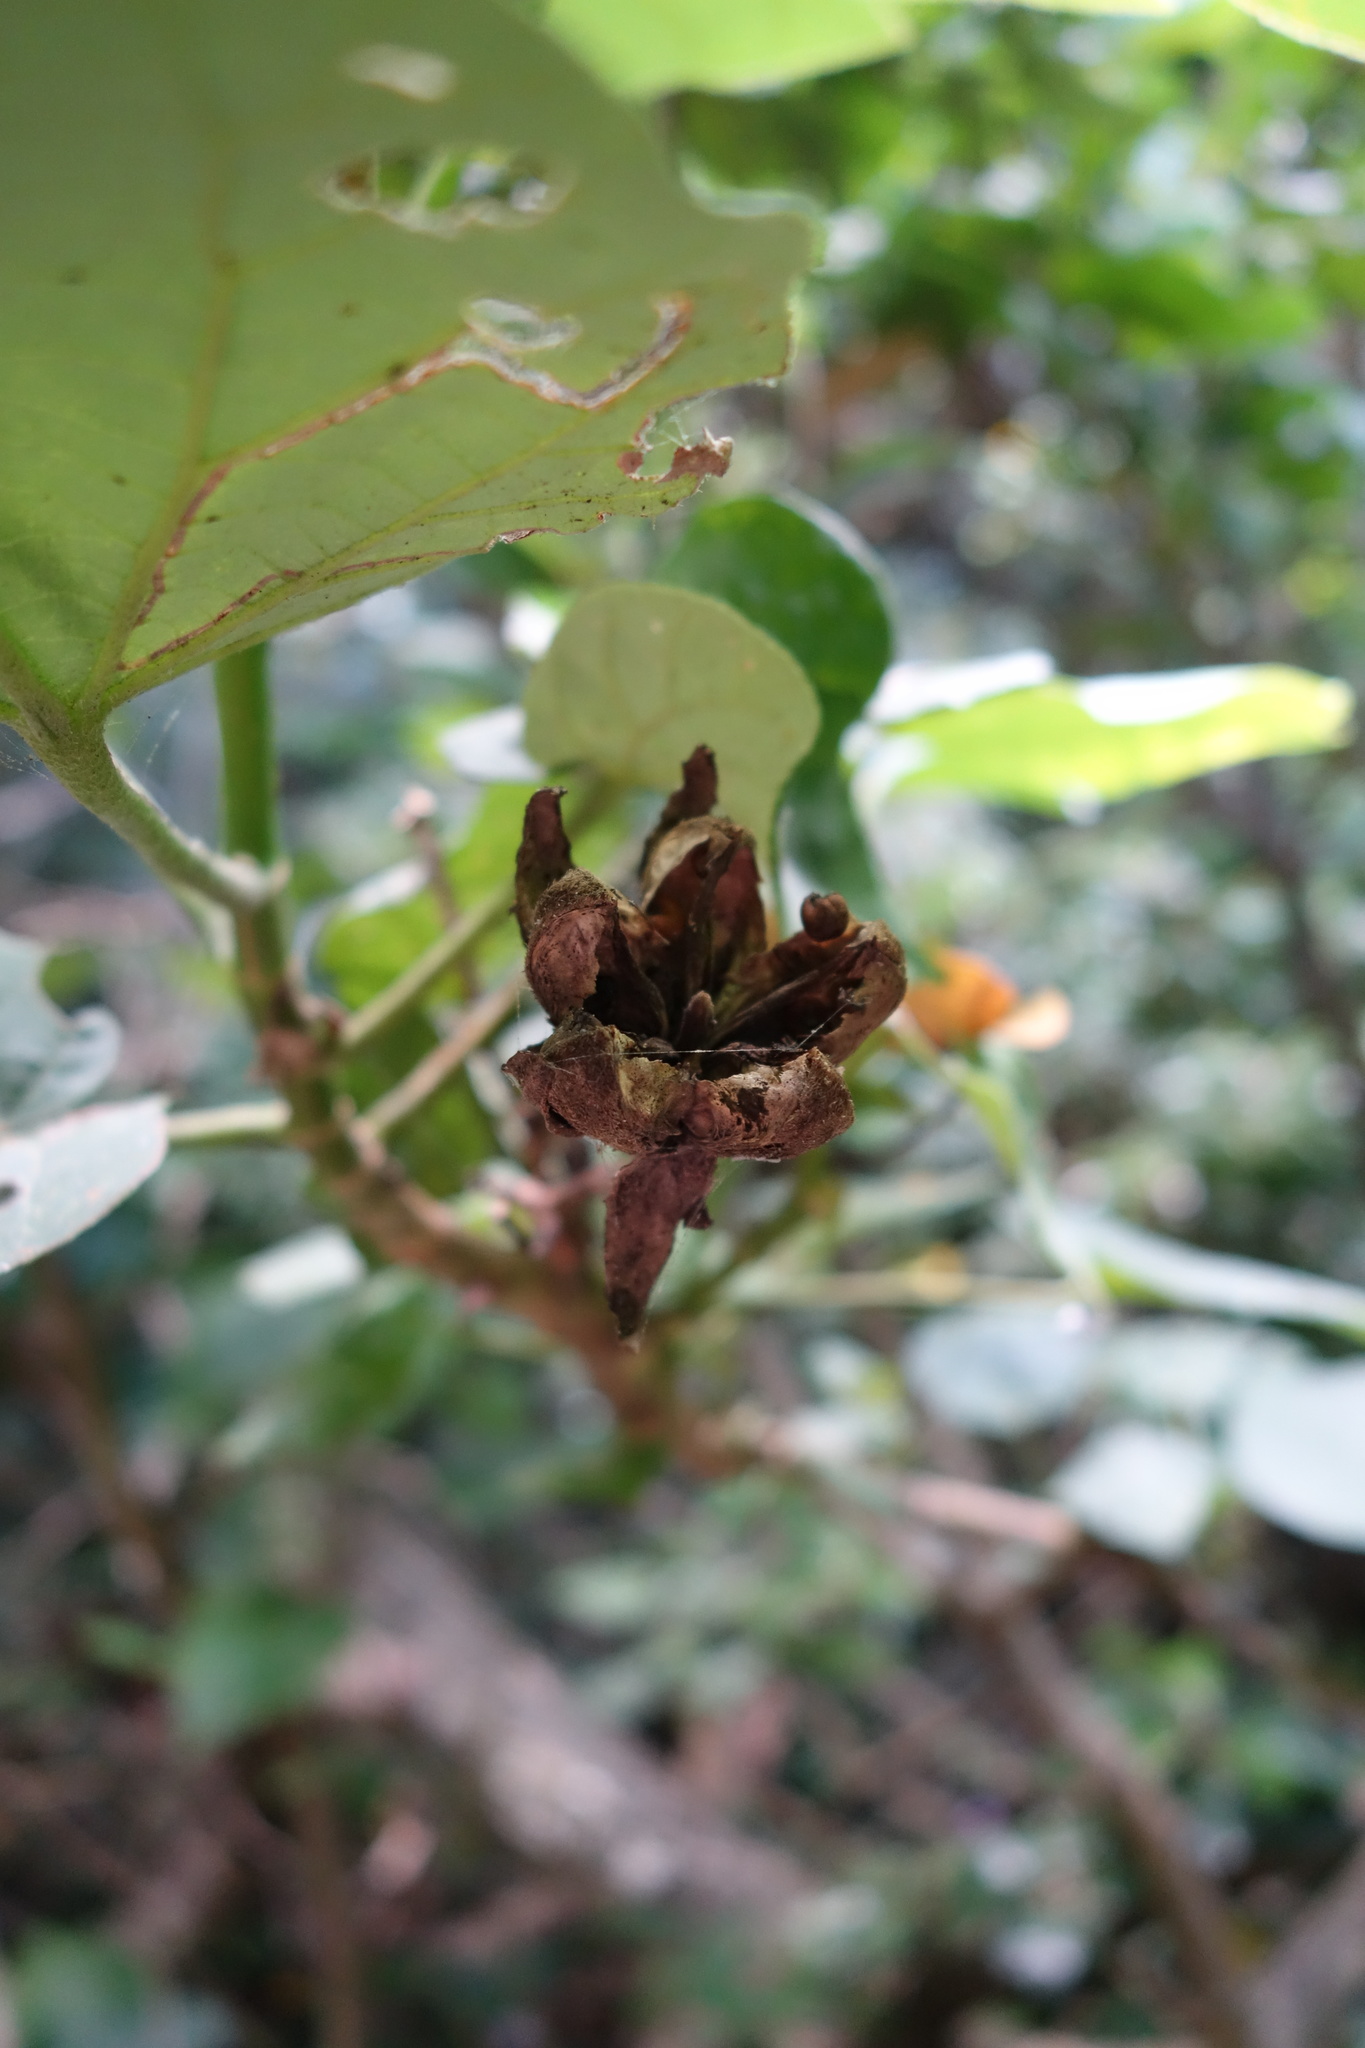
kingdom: Plantae
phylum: Tracheophyta
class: Magnoliopsida
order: Malvales
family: Malvaceae
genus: Talipariti
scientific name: Talipariti tiliaceum
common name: Sea hibiscus
